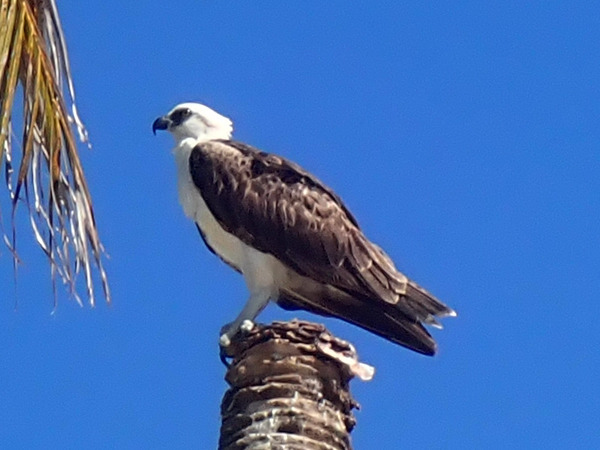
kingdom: Animalia
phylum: Chordata
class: Aves
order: Accipitriformes
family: Pandionidae
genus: Pandion
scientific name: Pandion haliaetus
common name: Osprey
